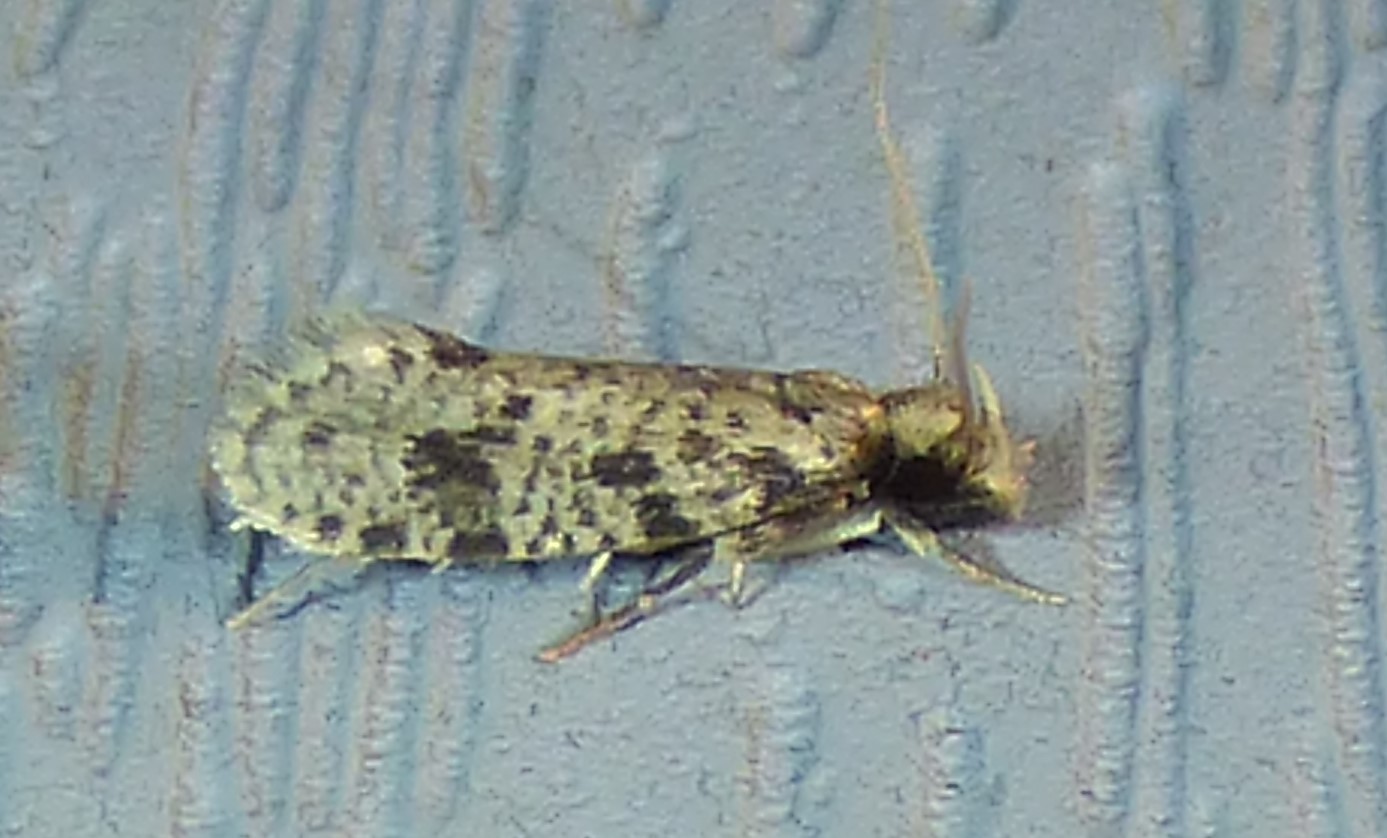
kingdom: Animalia
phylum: Arthropoda
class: Insecta
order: Lepidoptera
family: Tineidae
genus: Amydria
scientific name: Amydria effrentella
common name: Brown-blotched amydria moth
